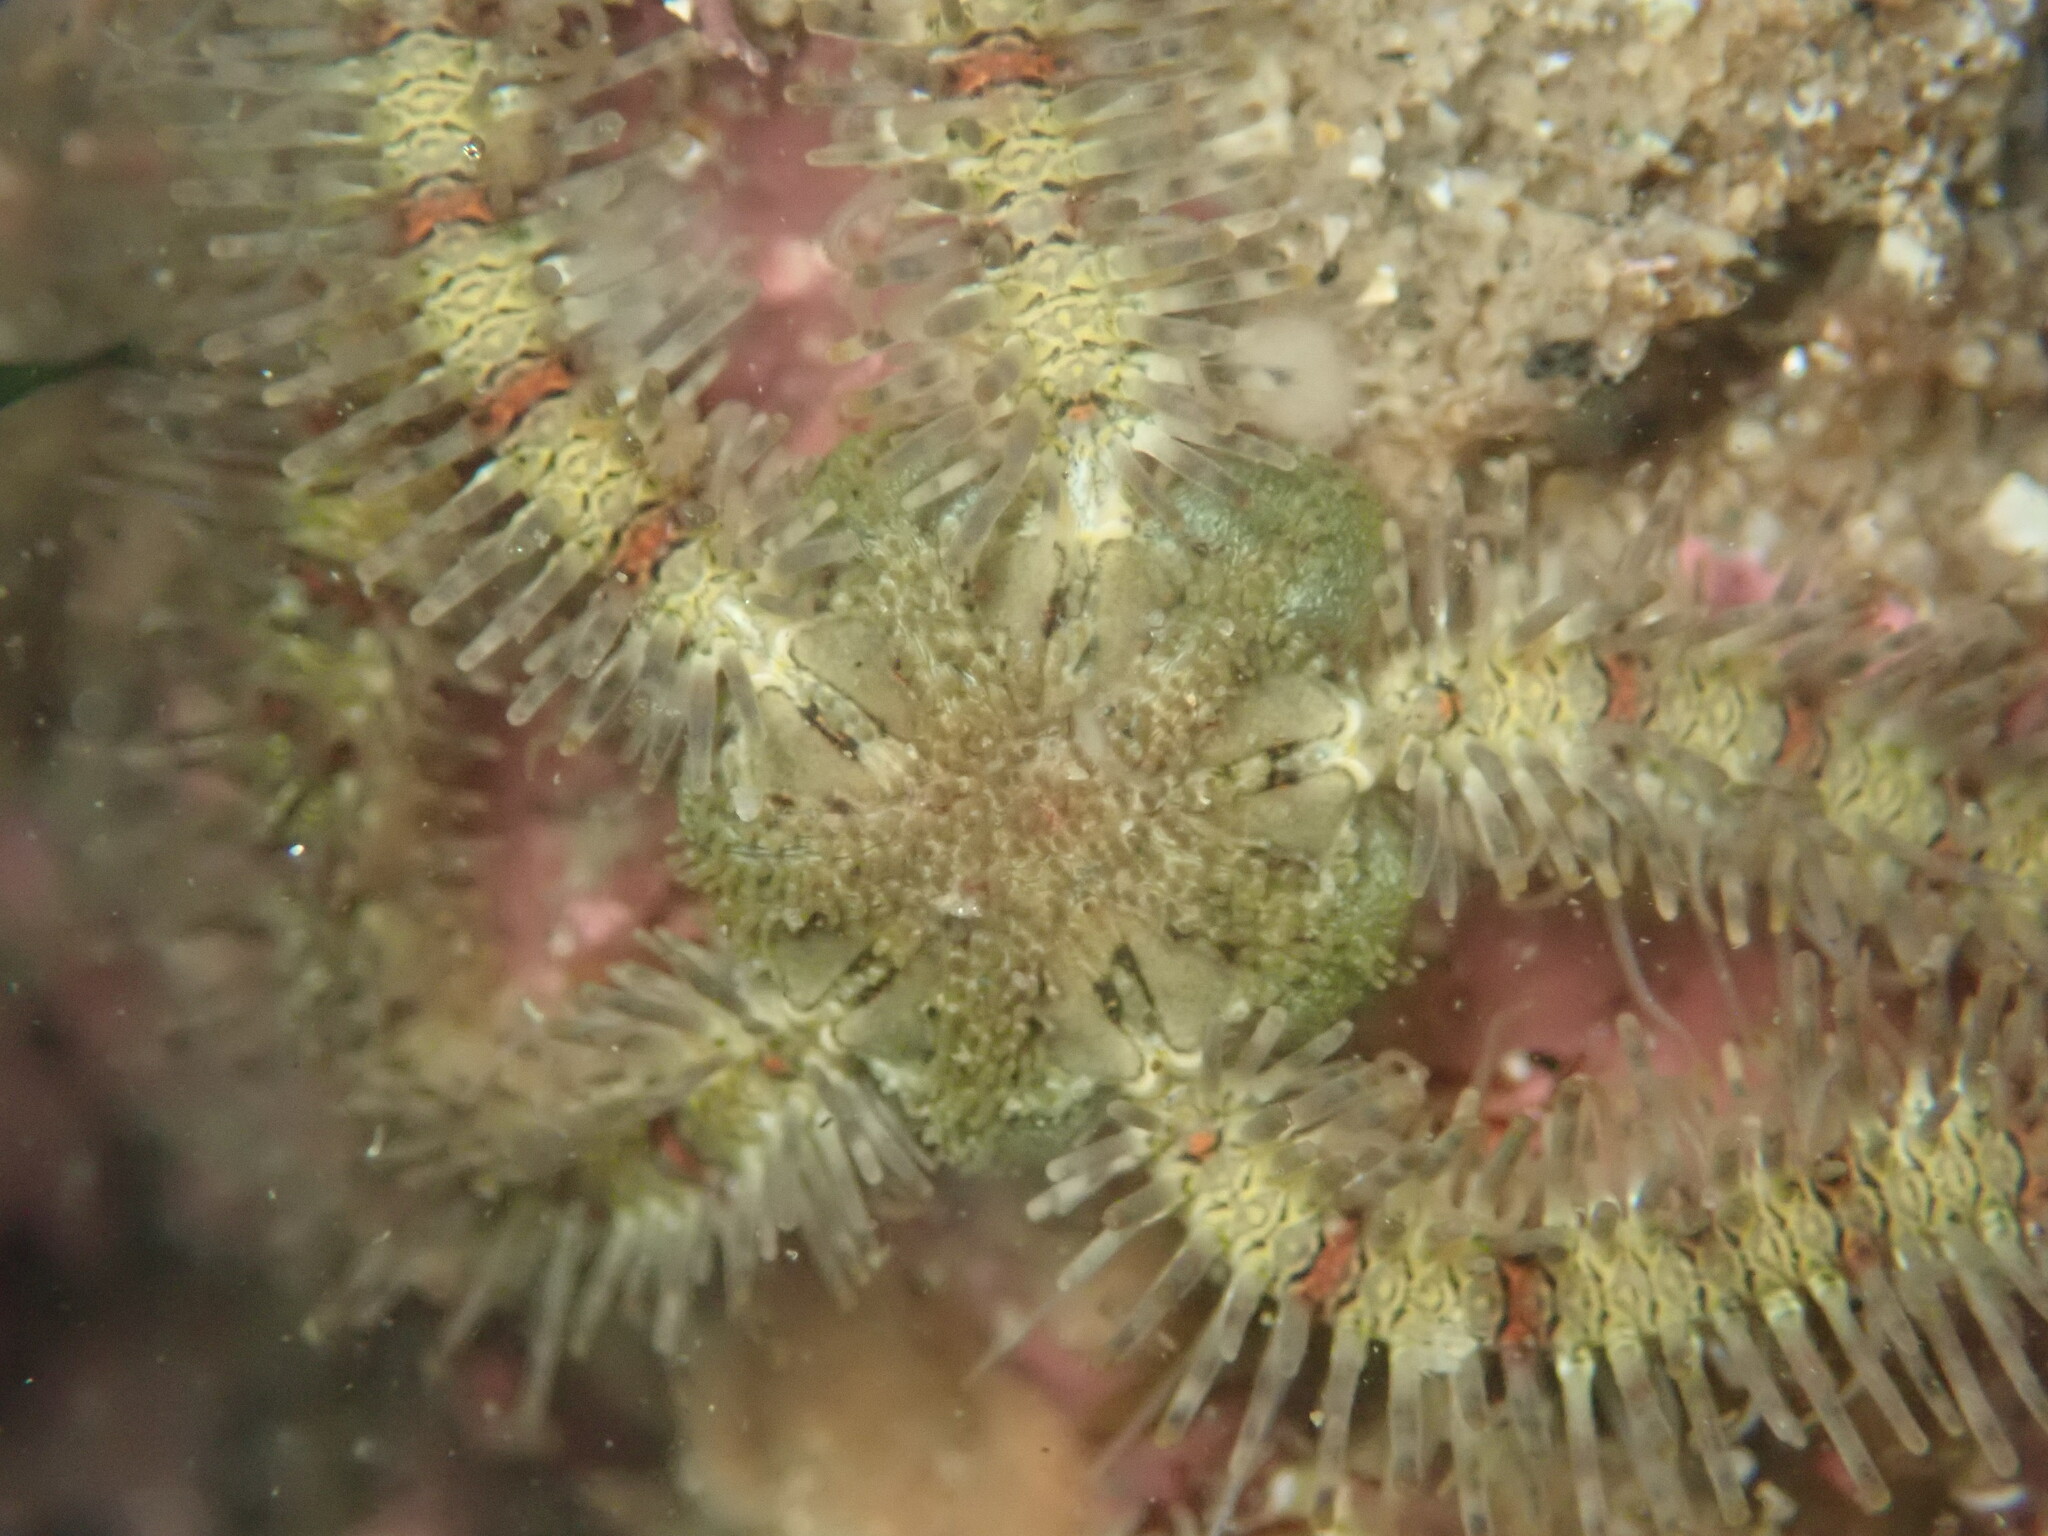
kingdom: Animalia
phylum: Echinodermata
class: Ophiuroidea
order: Amphilepidida
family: Ophiotrichidae
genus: Ophiothrix
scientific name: Ophiothrix rudis
